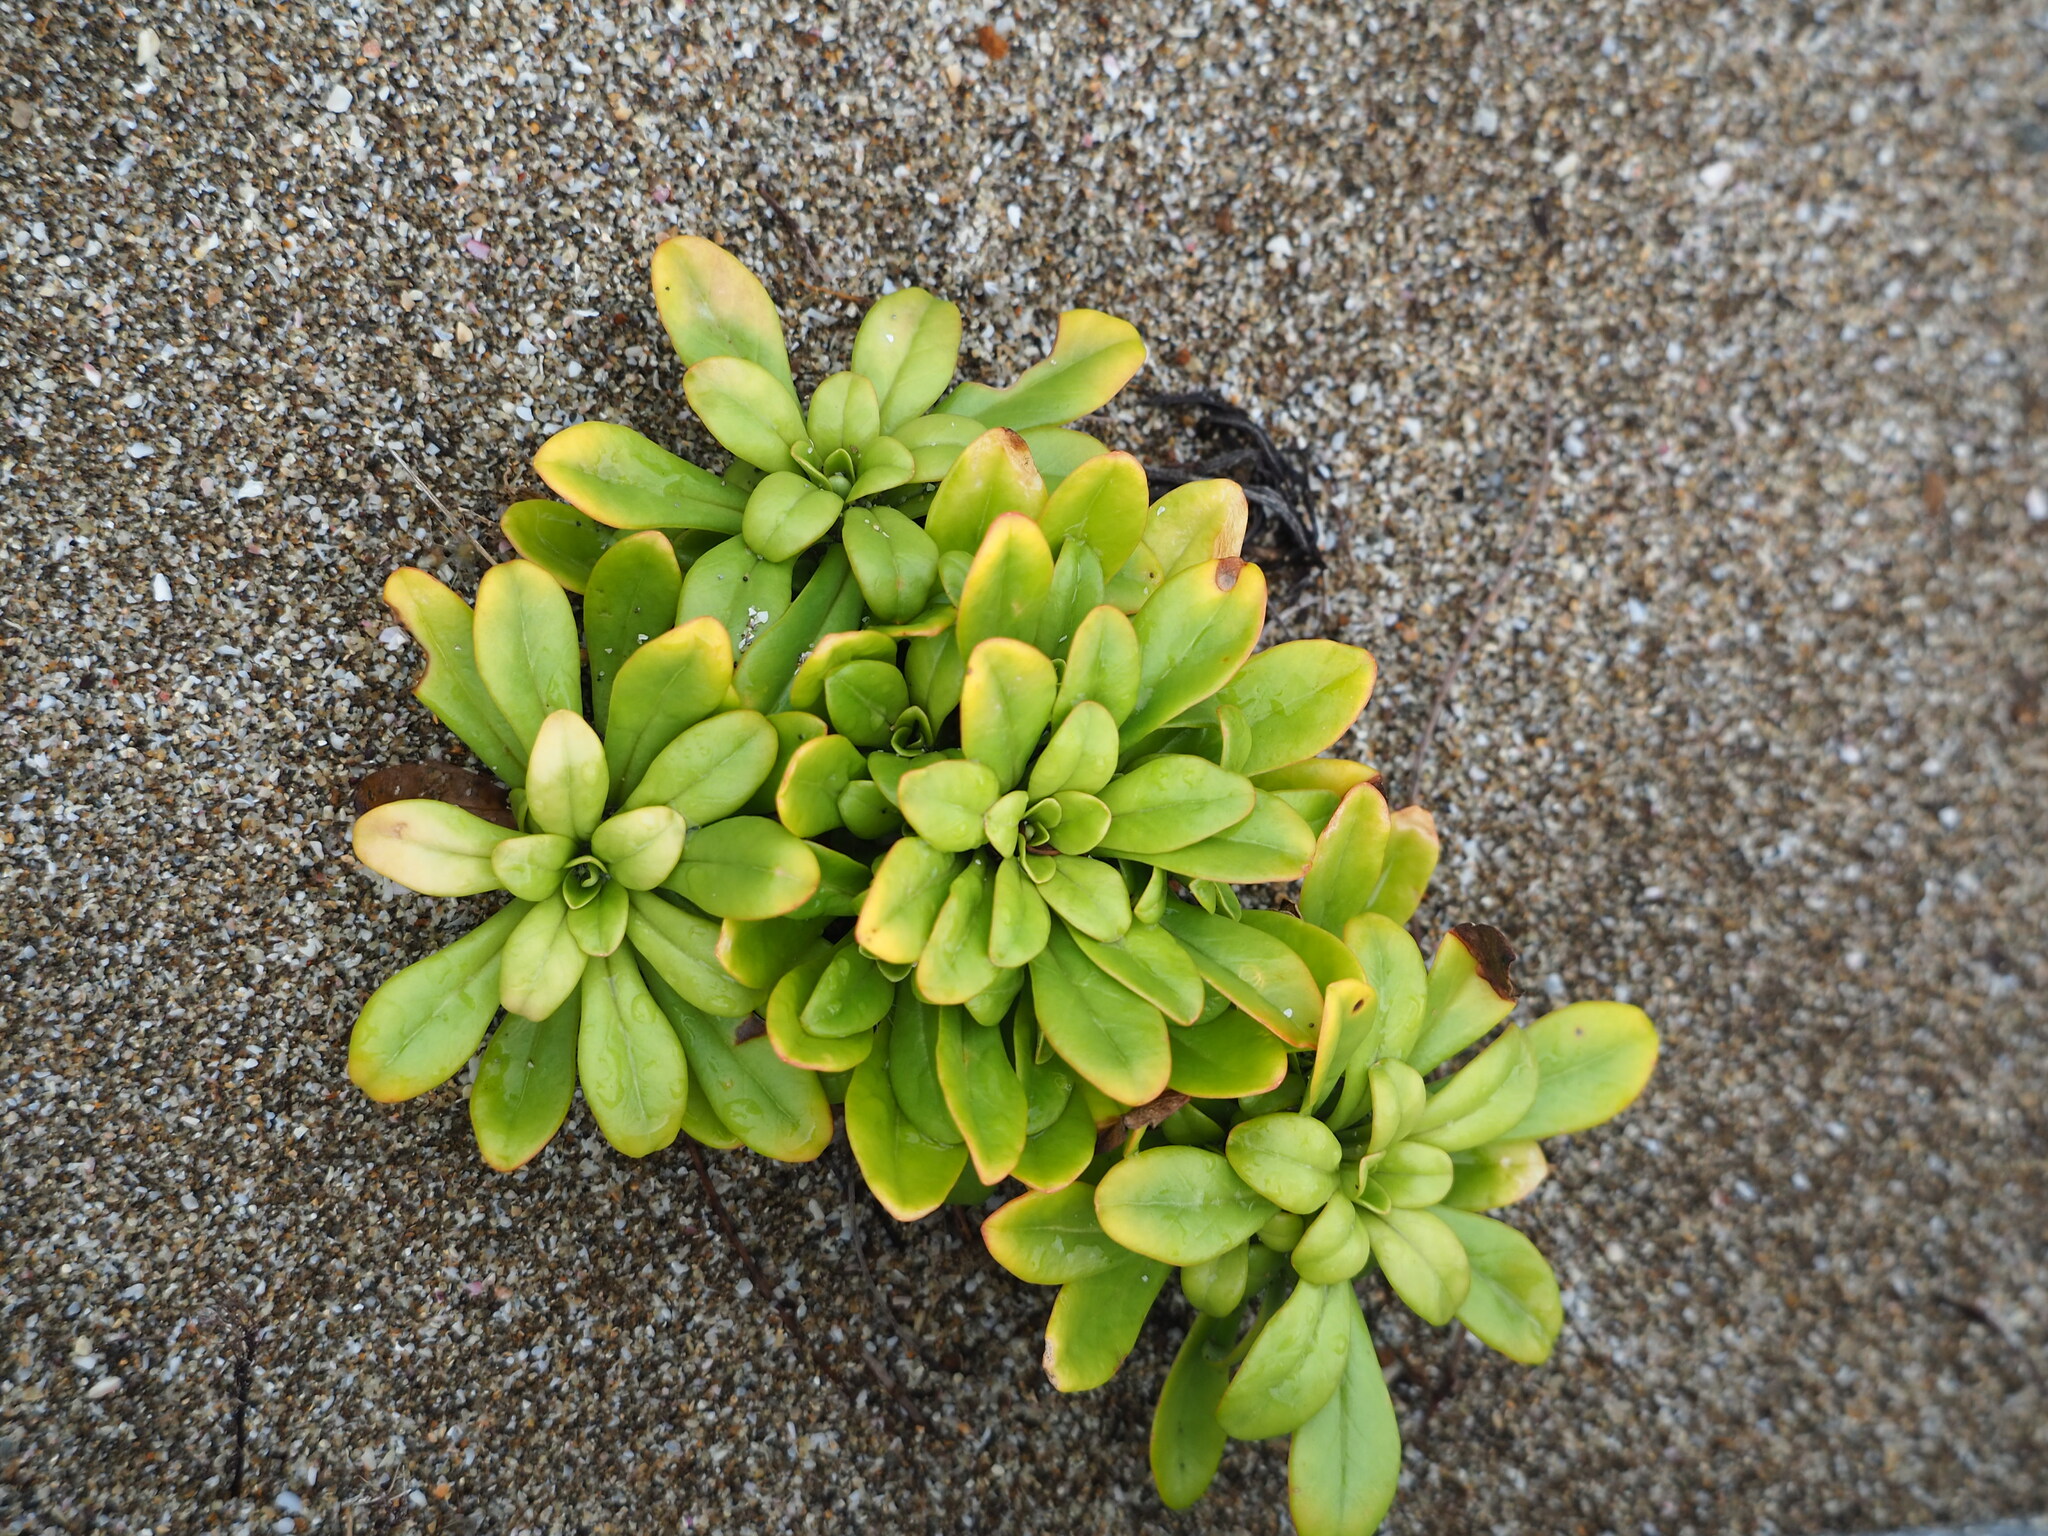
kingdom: Plantae
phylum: Tracheophyta
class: Magnoliopsida
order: Ericales
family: Primulaceae
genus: Lysimachia
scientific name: Lysimachia mauritiana
